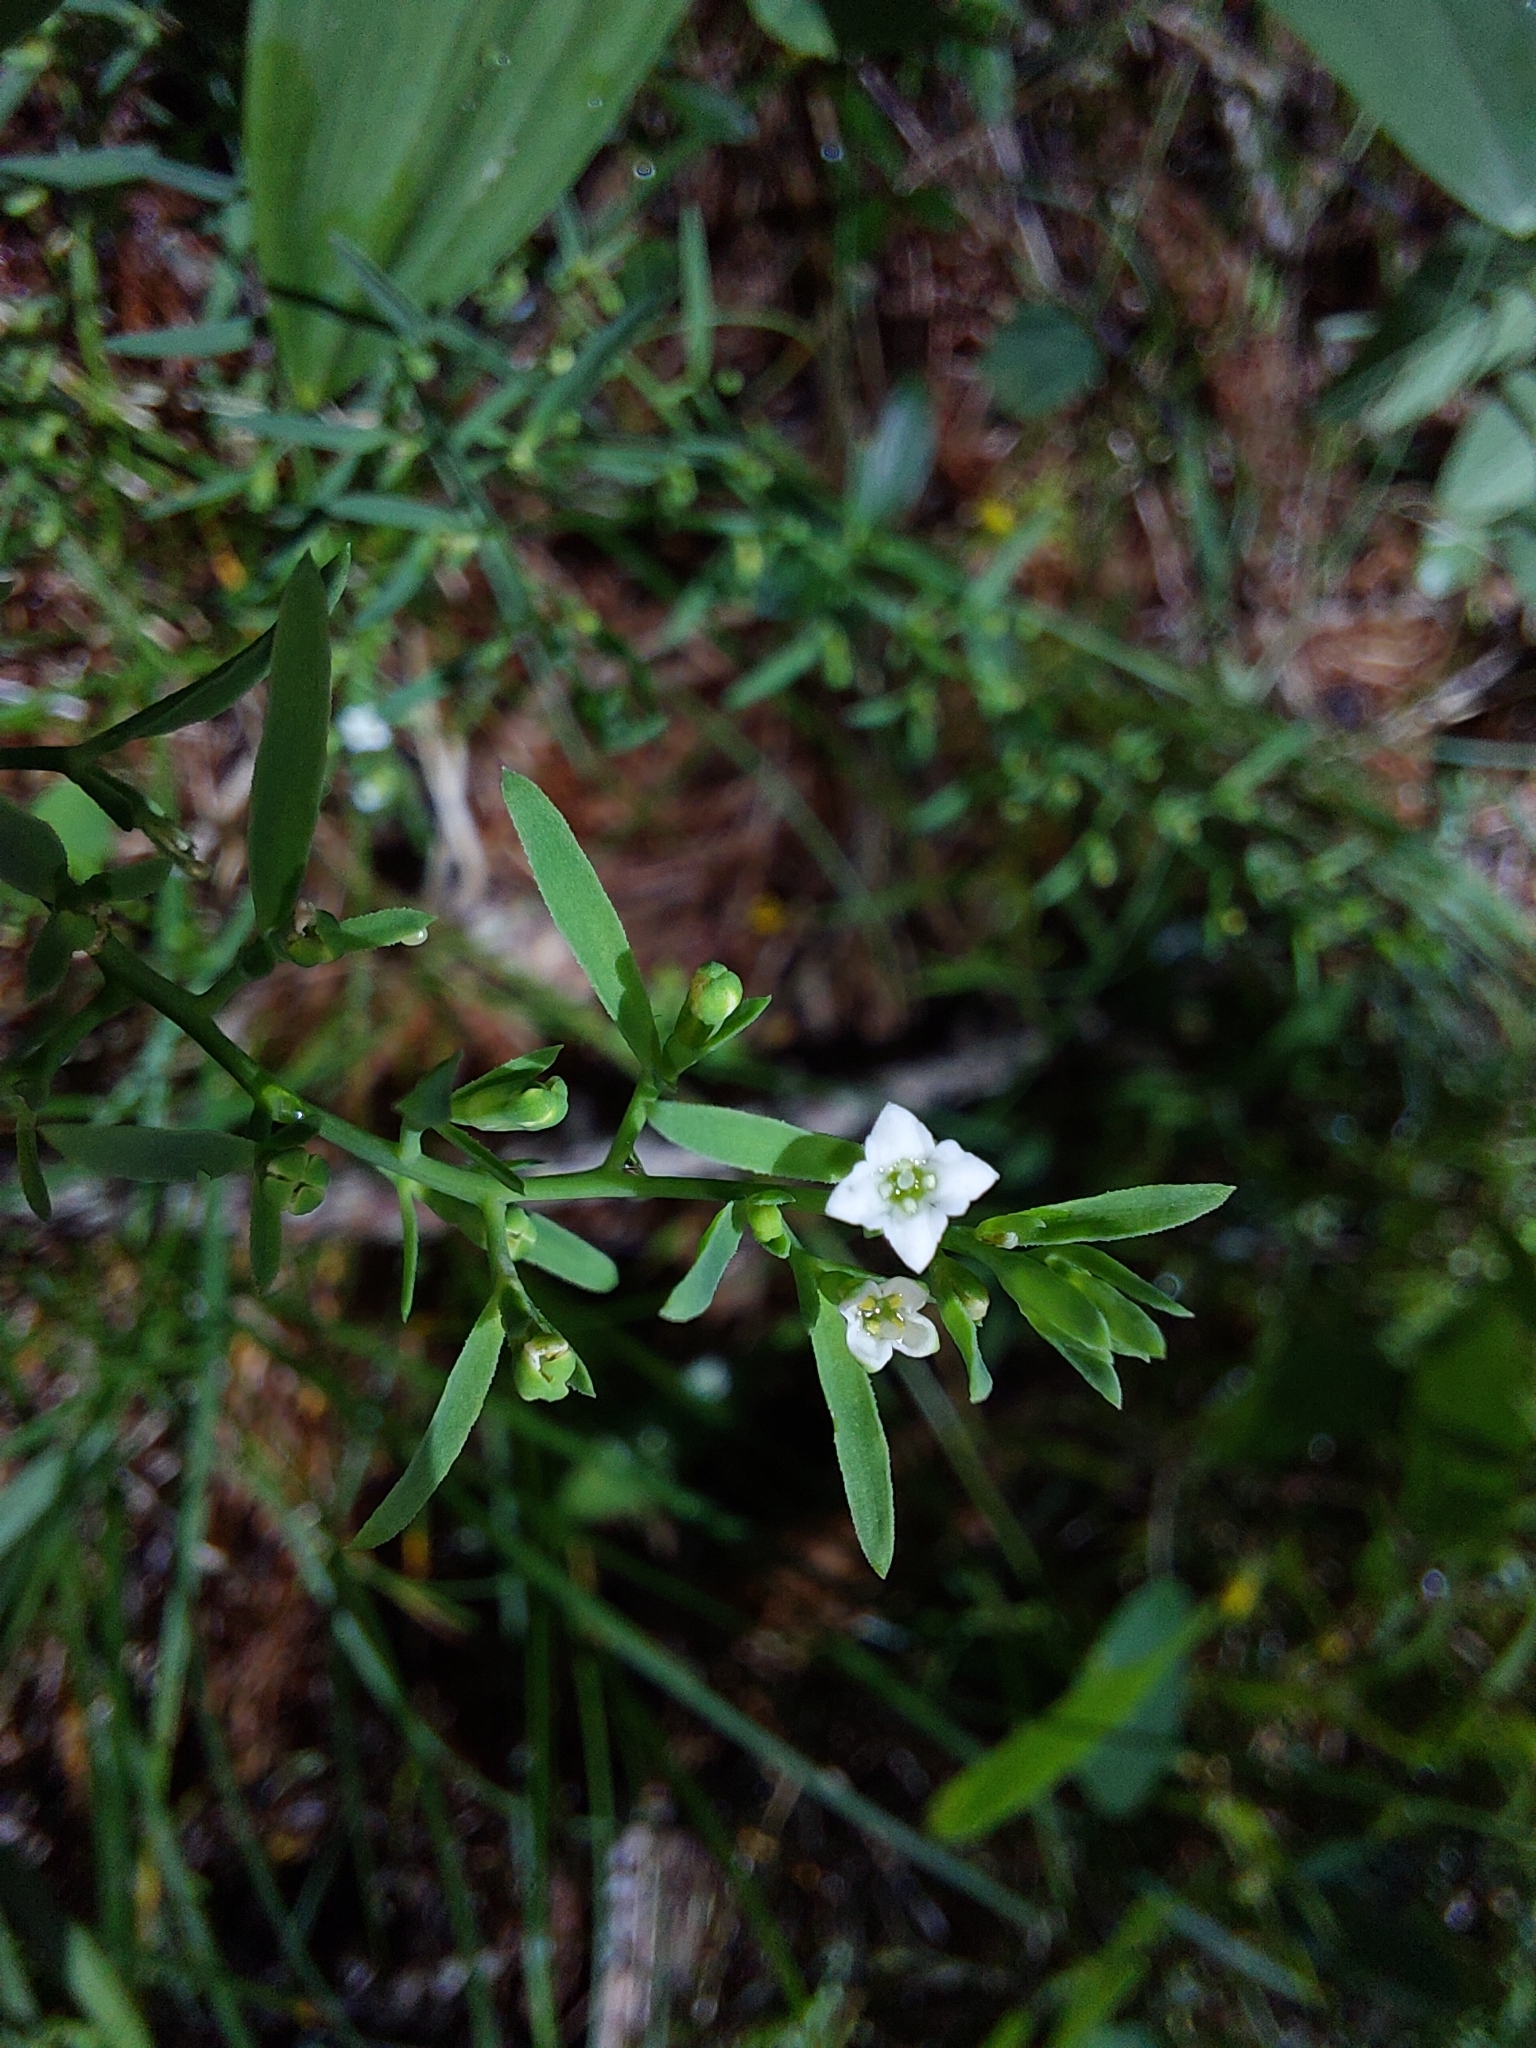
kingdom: Plantae
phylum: Tracheophyta
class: Magnoliopsida
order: Santalales
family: Thesiaceae
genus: Thesium
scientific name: Thesium alpinum
